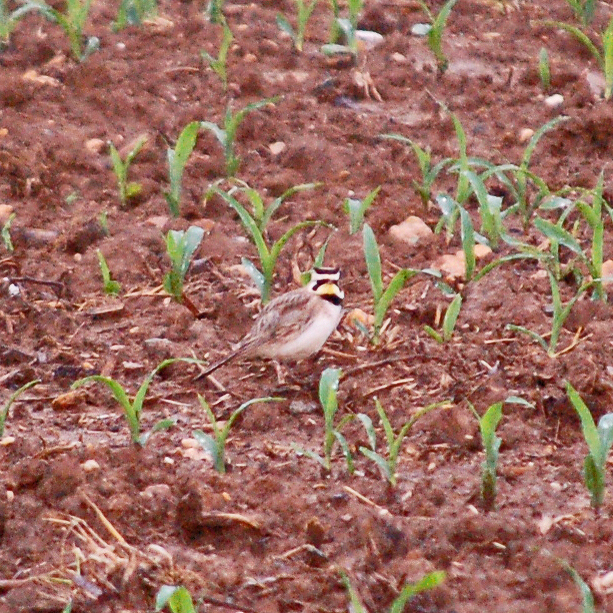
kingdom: Animalia
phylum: Chordata
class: Aves
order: Passeriformes
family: Alaudidae
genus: Eremophila
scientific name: Eremophila alpestris
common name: Horned lark
